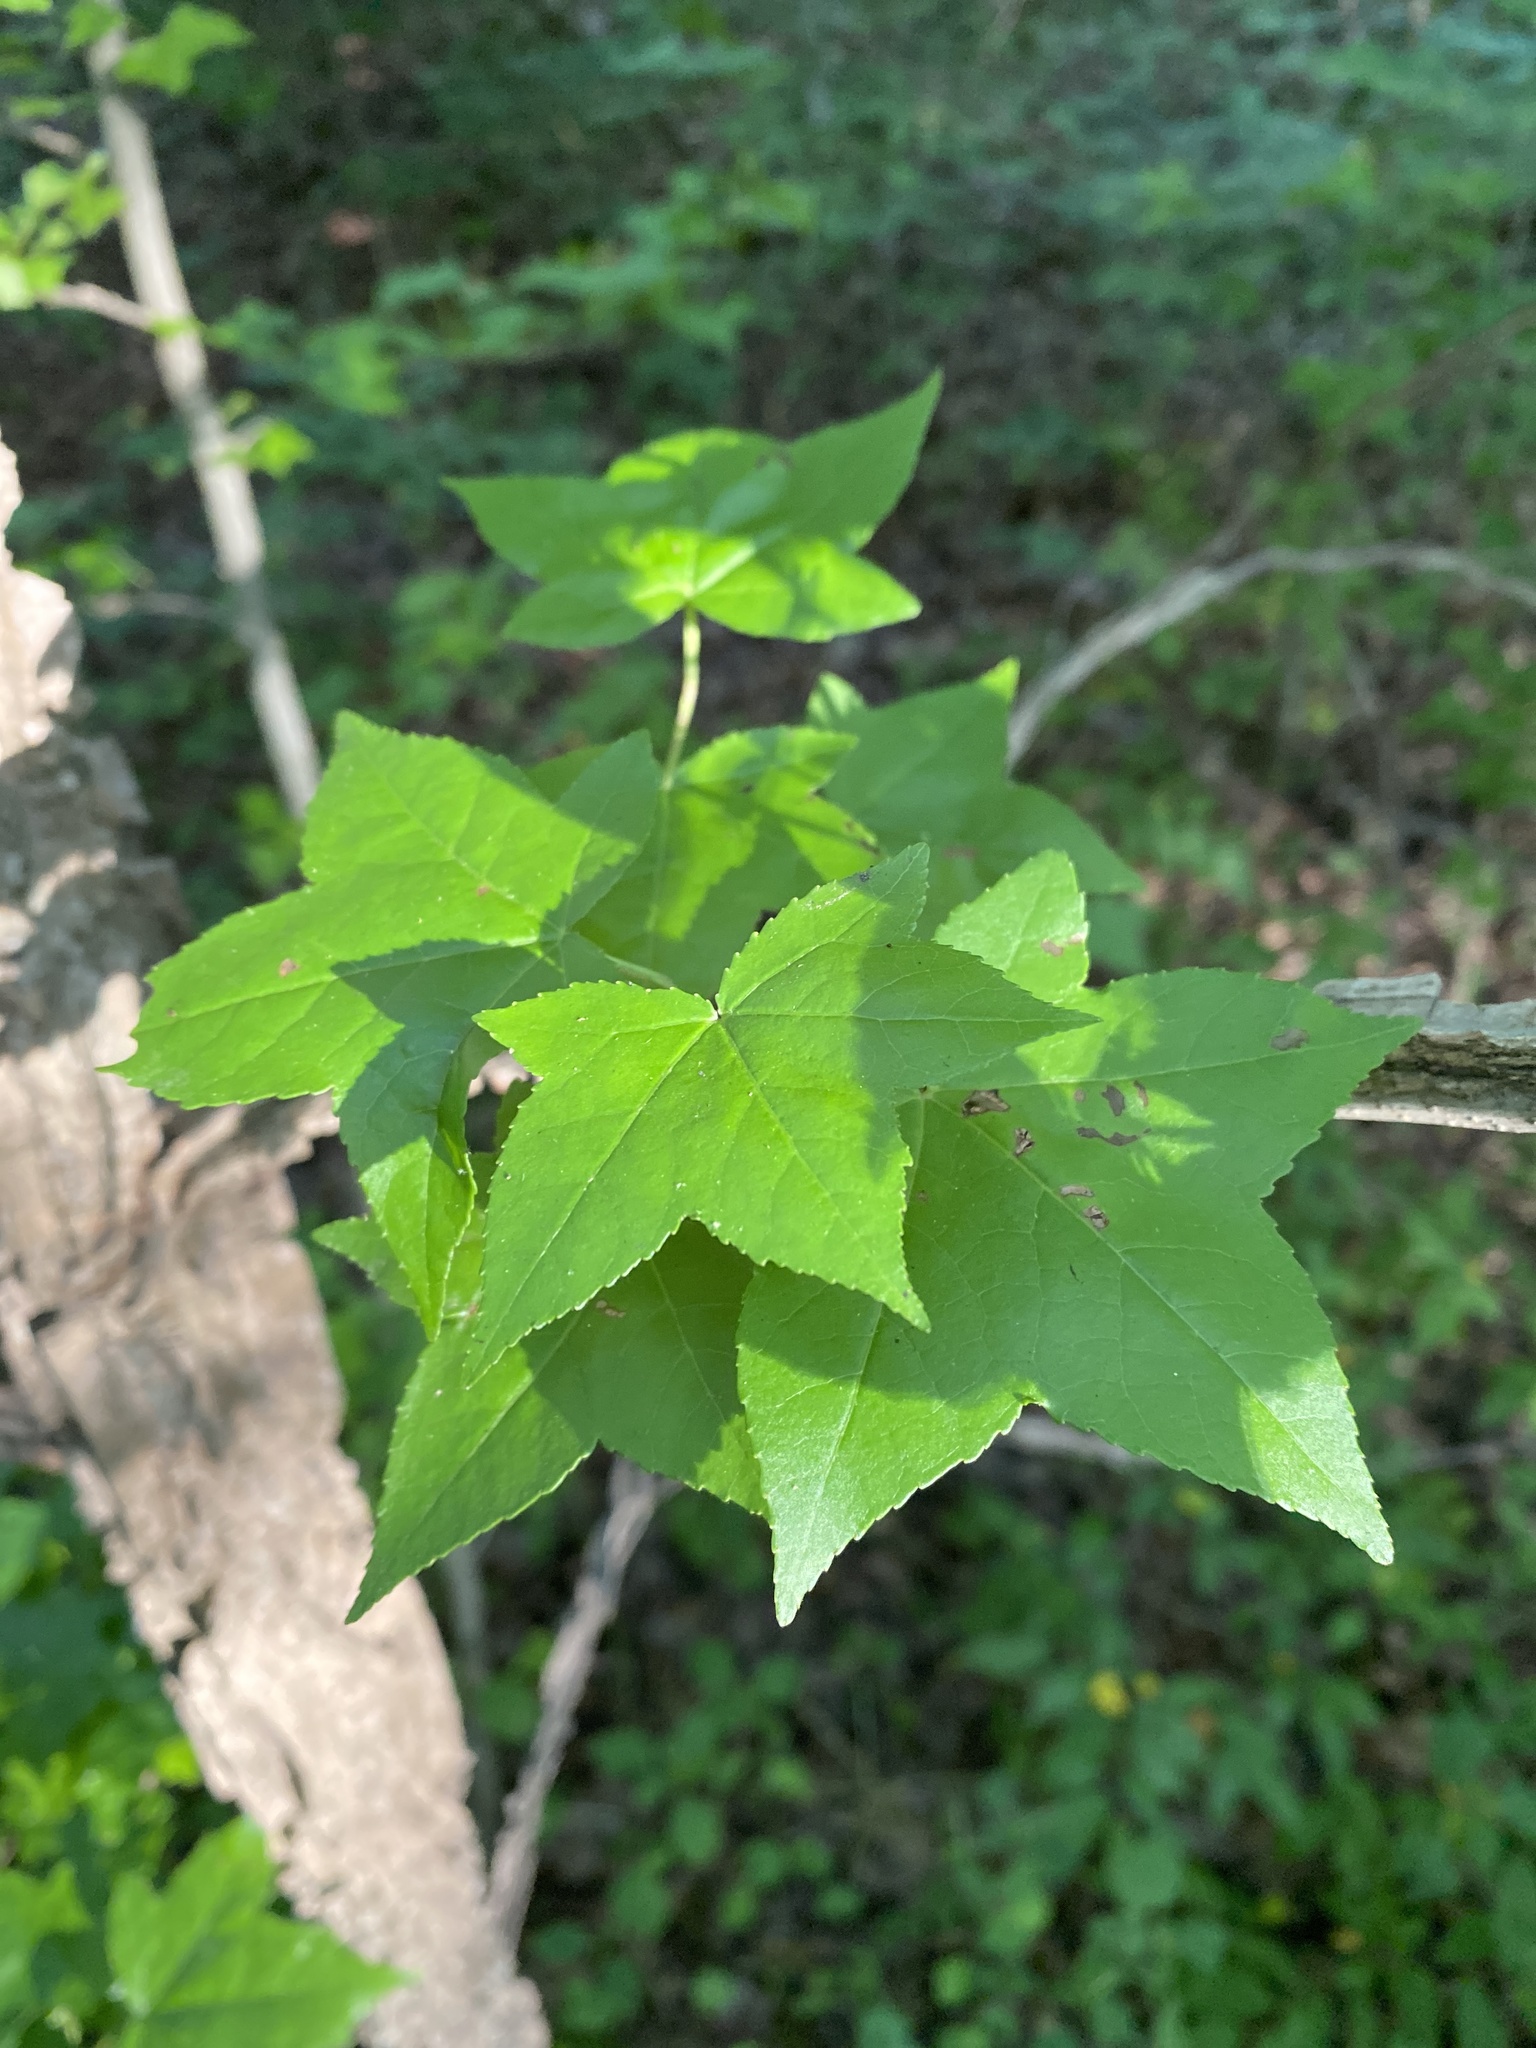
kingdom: Plantae
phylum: Tracheophyta
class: Magnoliopsida
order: Saxifragales
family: Altingiaceae
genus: Liquidambar
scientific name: Liquidambar styraciflua
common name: Sweet gum
